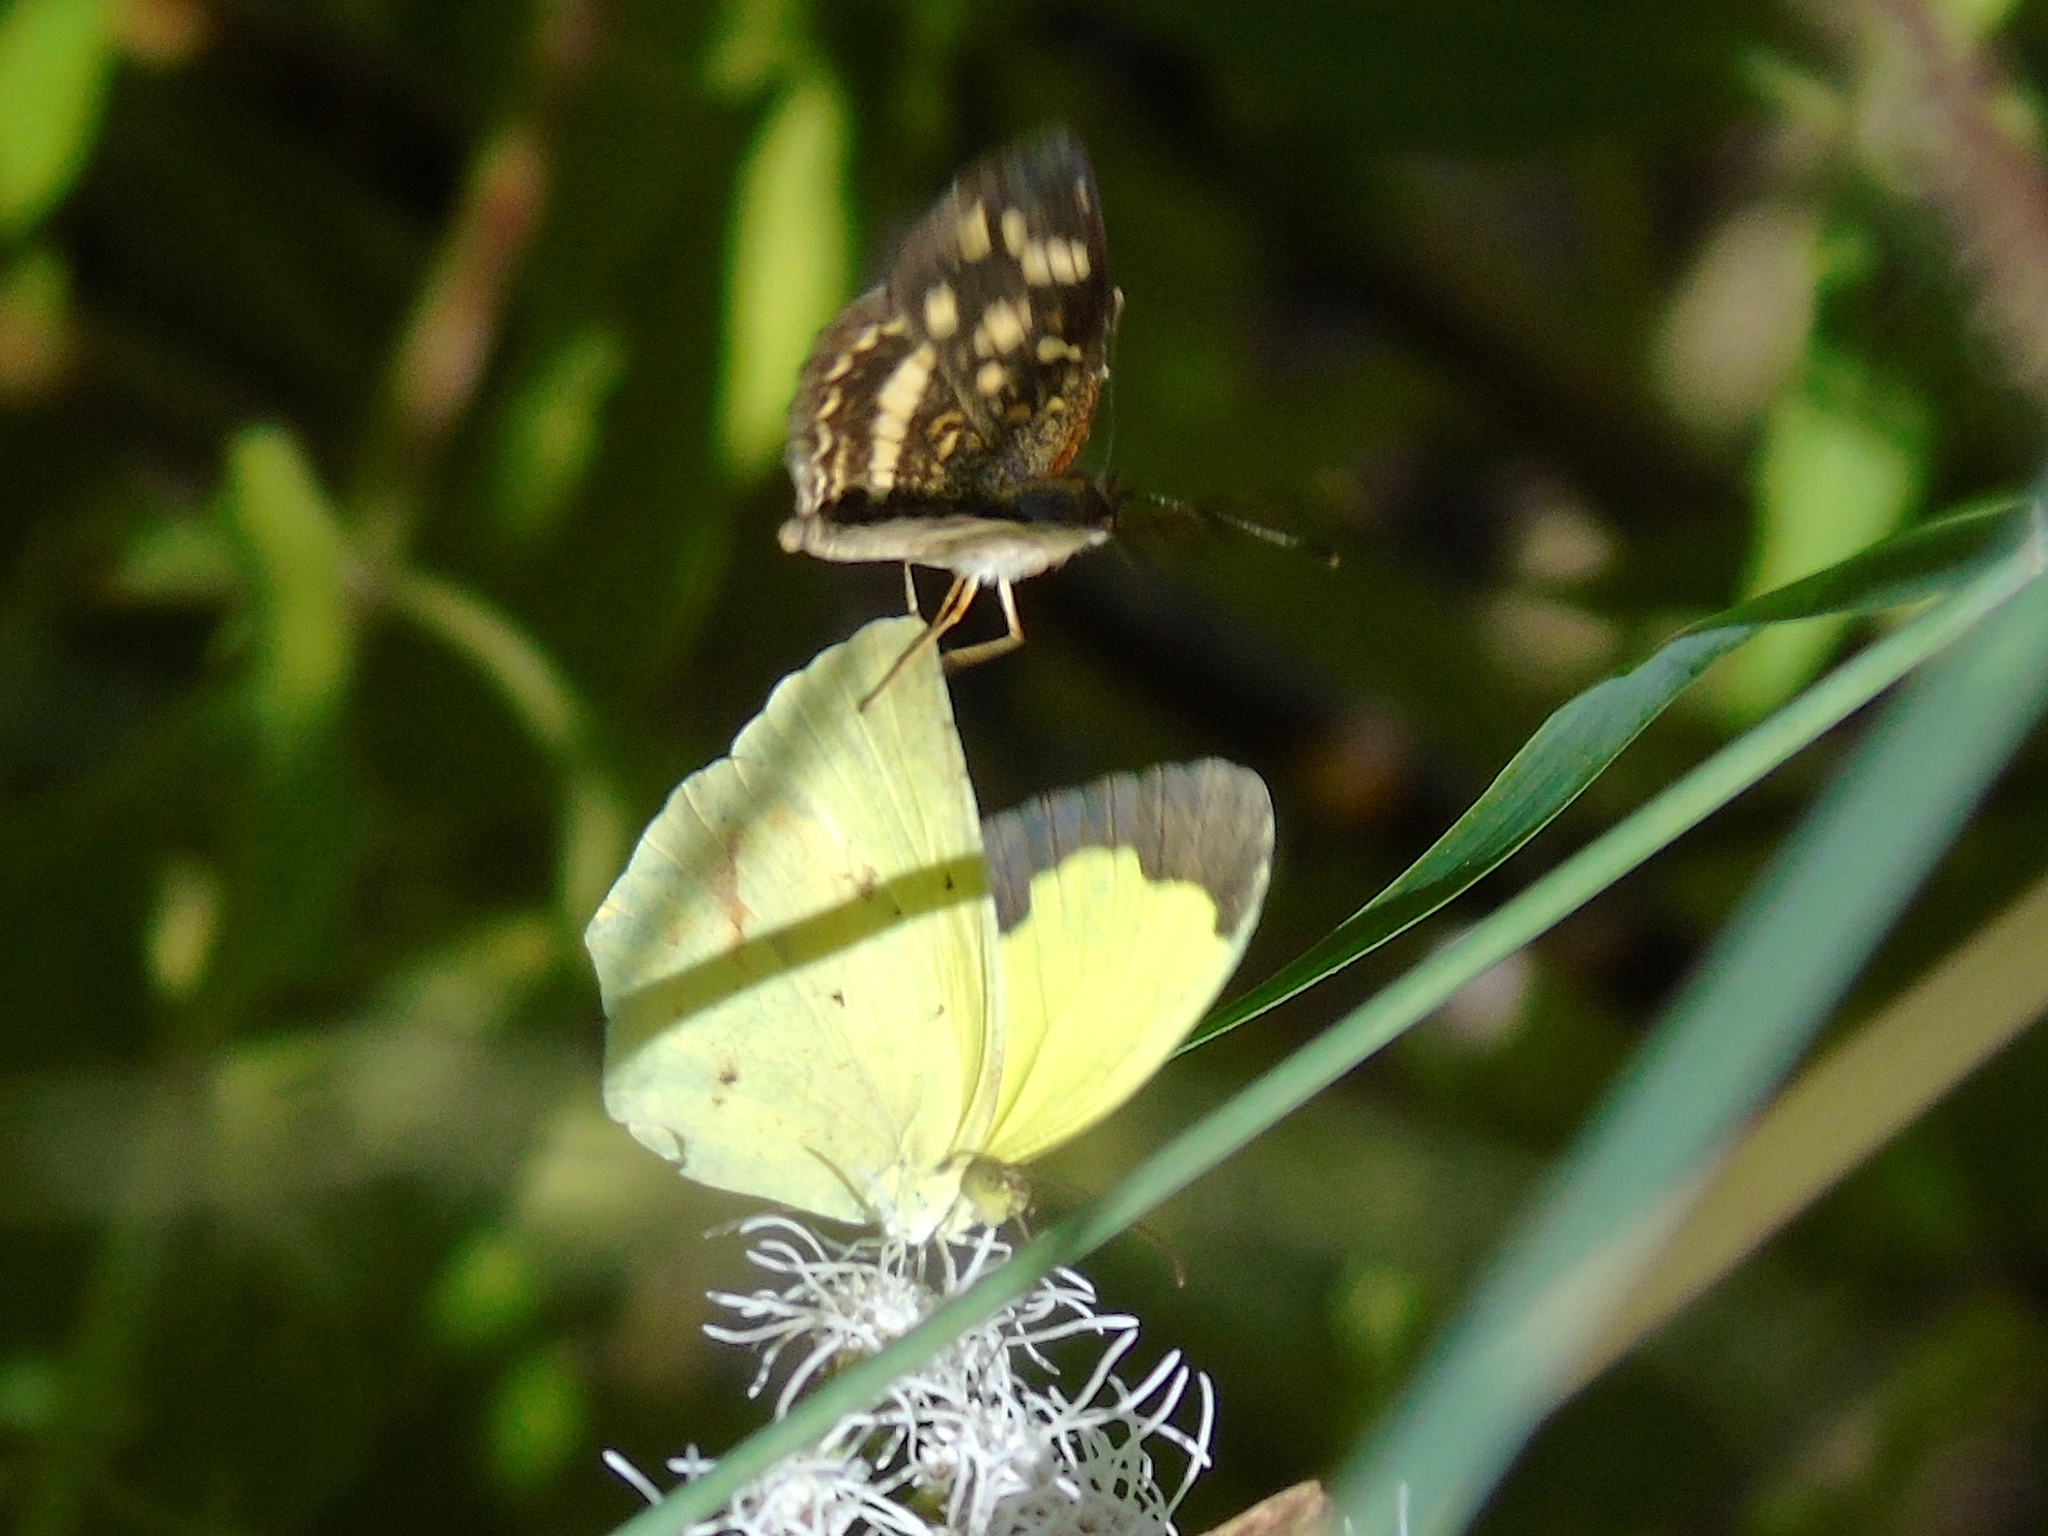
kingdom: Animalia
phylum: Arthropoda
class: Insecta
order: Lepidoptera
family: Pieridae
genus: Abaeis
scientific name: Abaeis boisduvaliana
